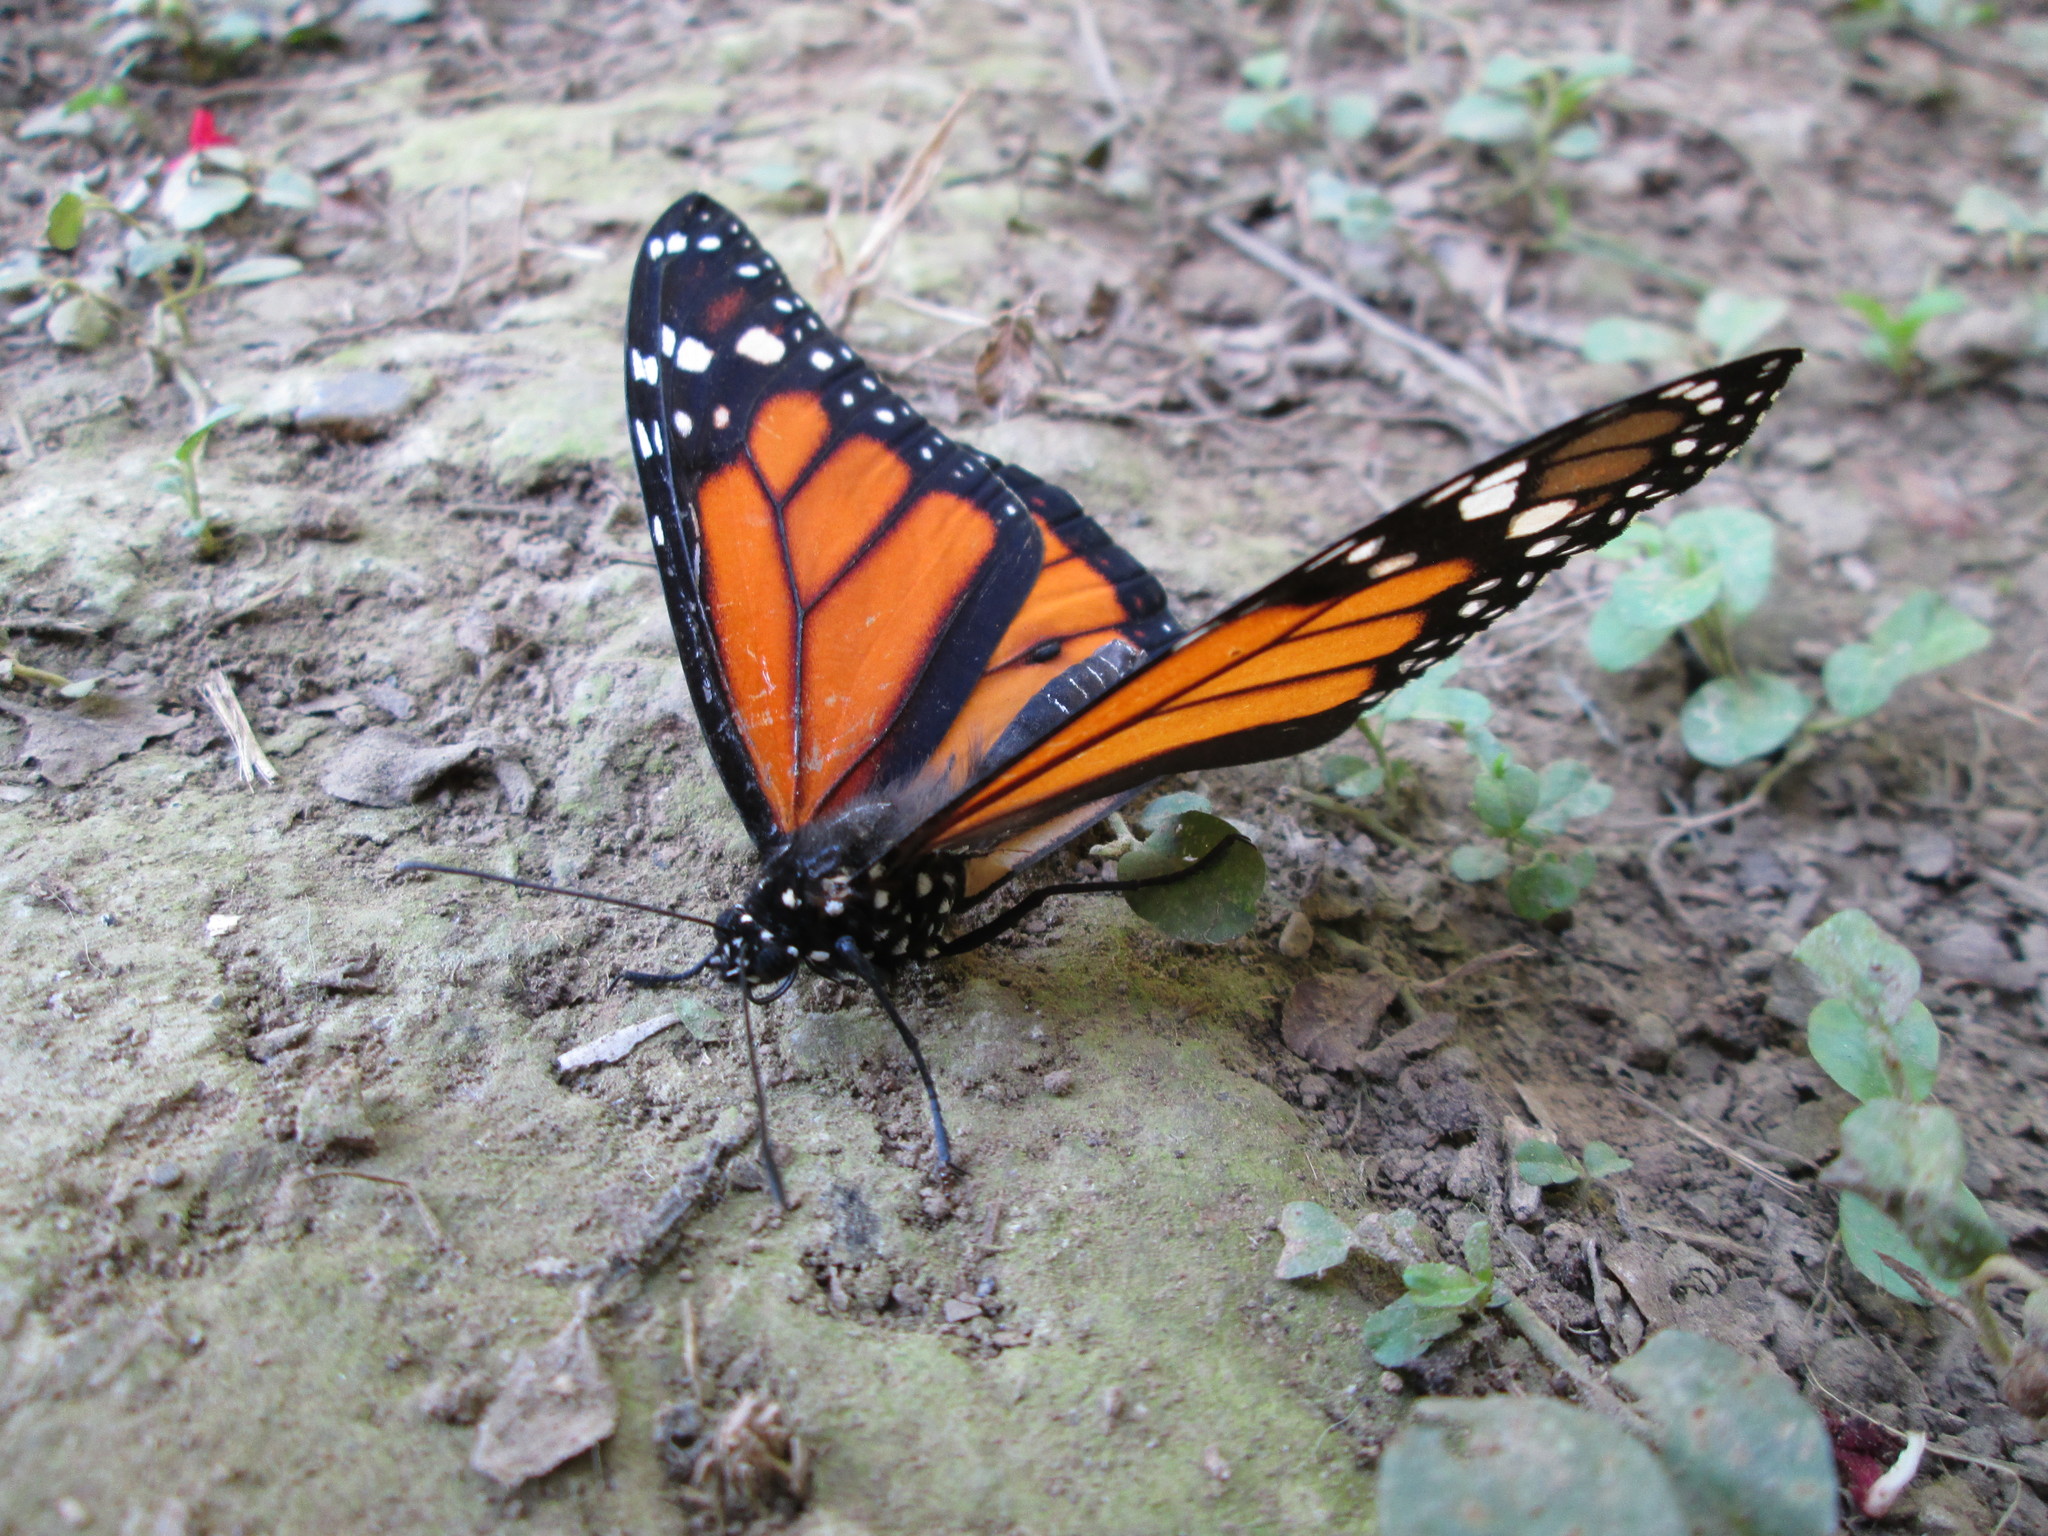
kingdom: Animalia
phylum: Arthropoda
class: Insecta
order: Lepidoptera
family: Nymphalidae
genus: Danaus
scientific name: Danaus plexippus
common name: Monarch
